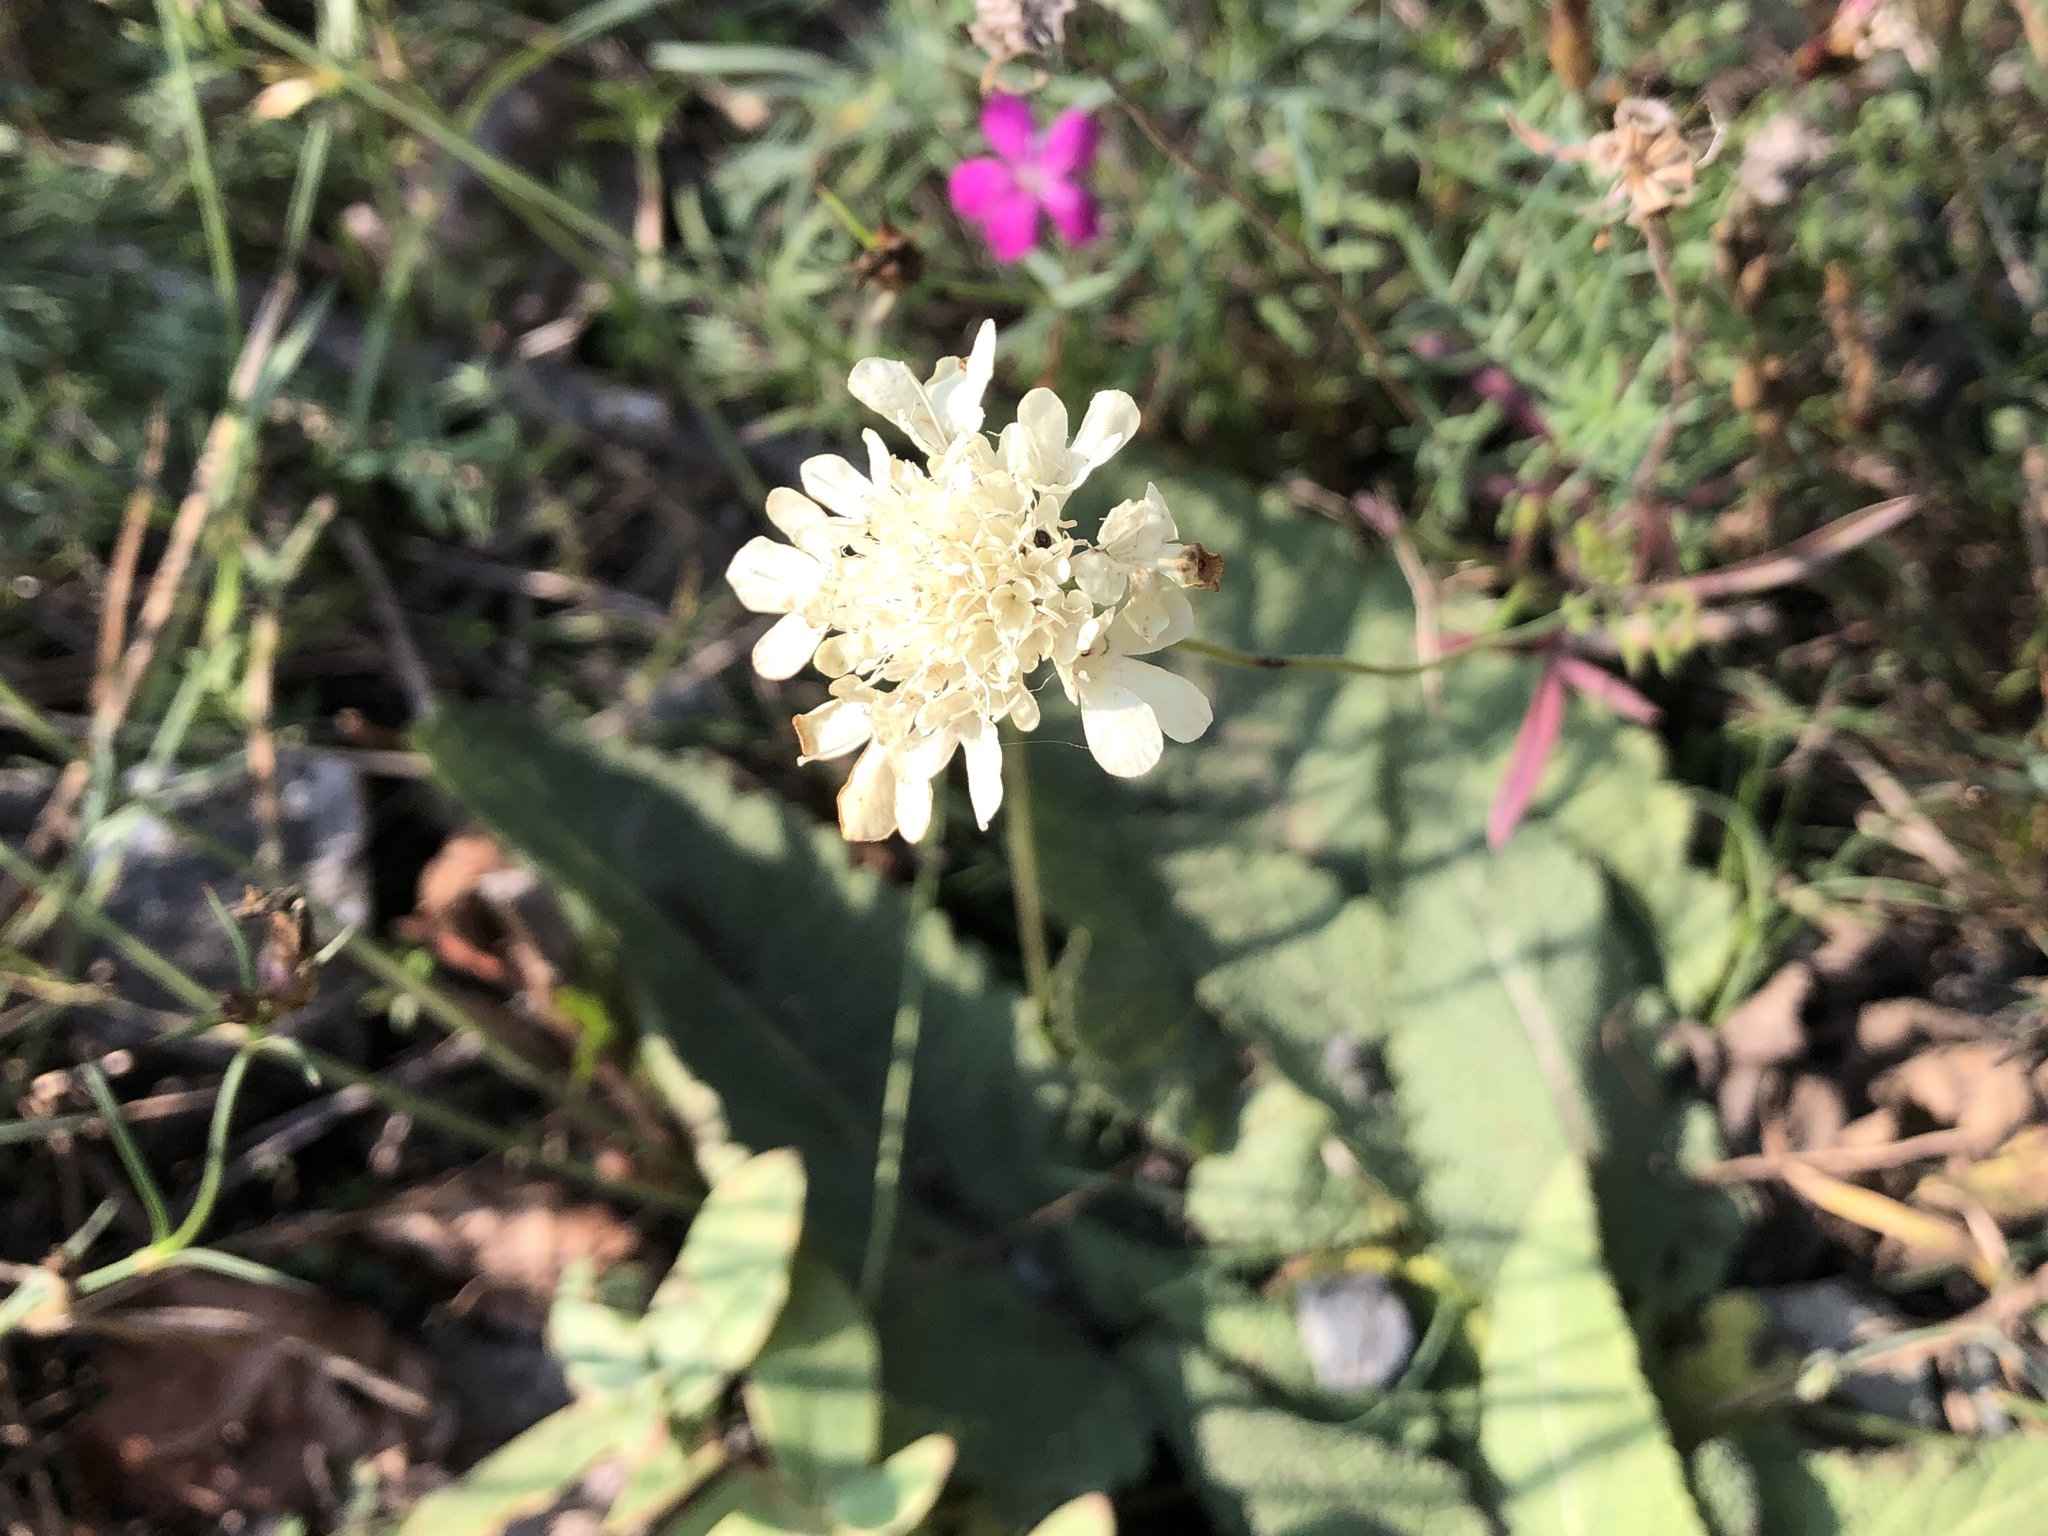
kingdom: Plantae
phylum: Tracheophyta
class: Magnoliopsida
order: Dipsacales
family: Caprifoliaceae
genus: Scabiosa
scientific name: Scabiosa ochroleuca
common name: Cream pincushions
